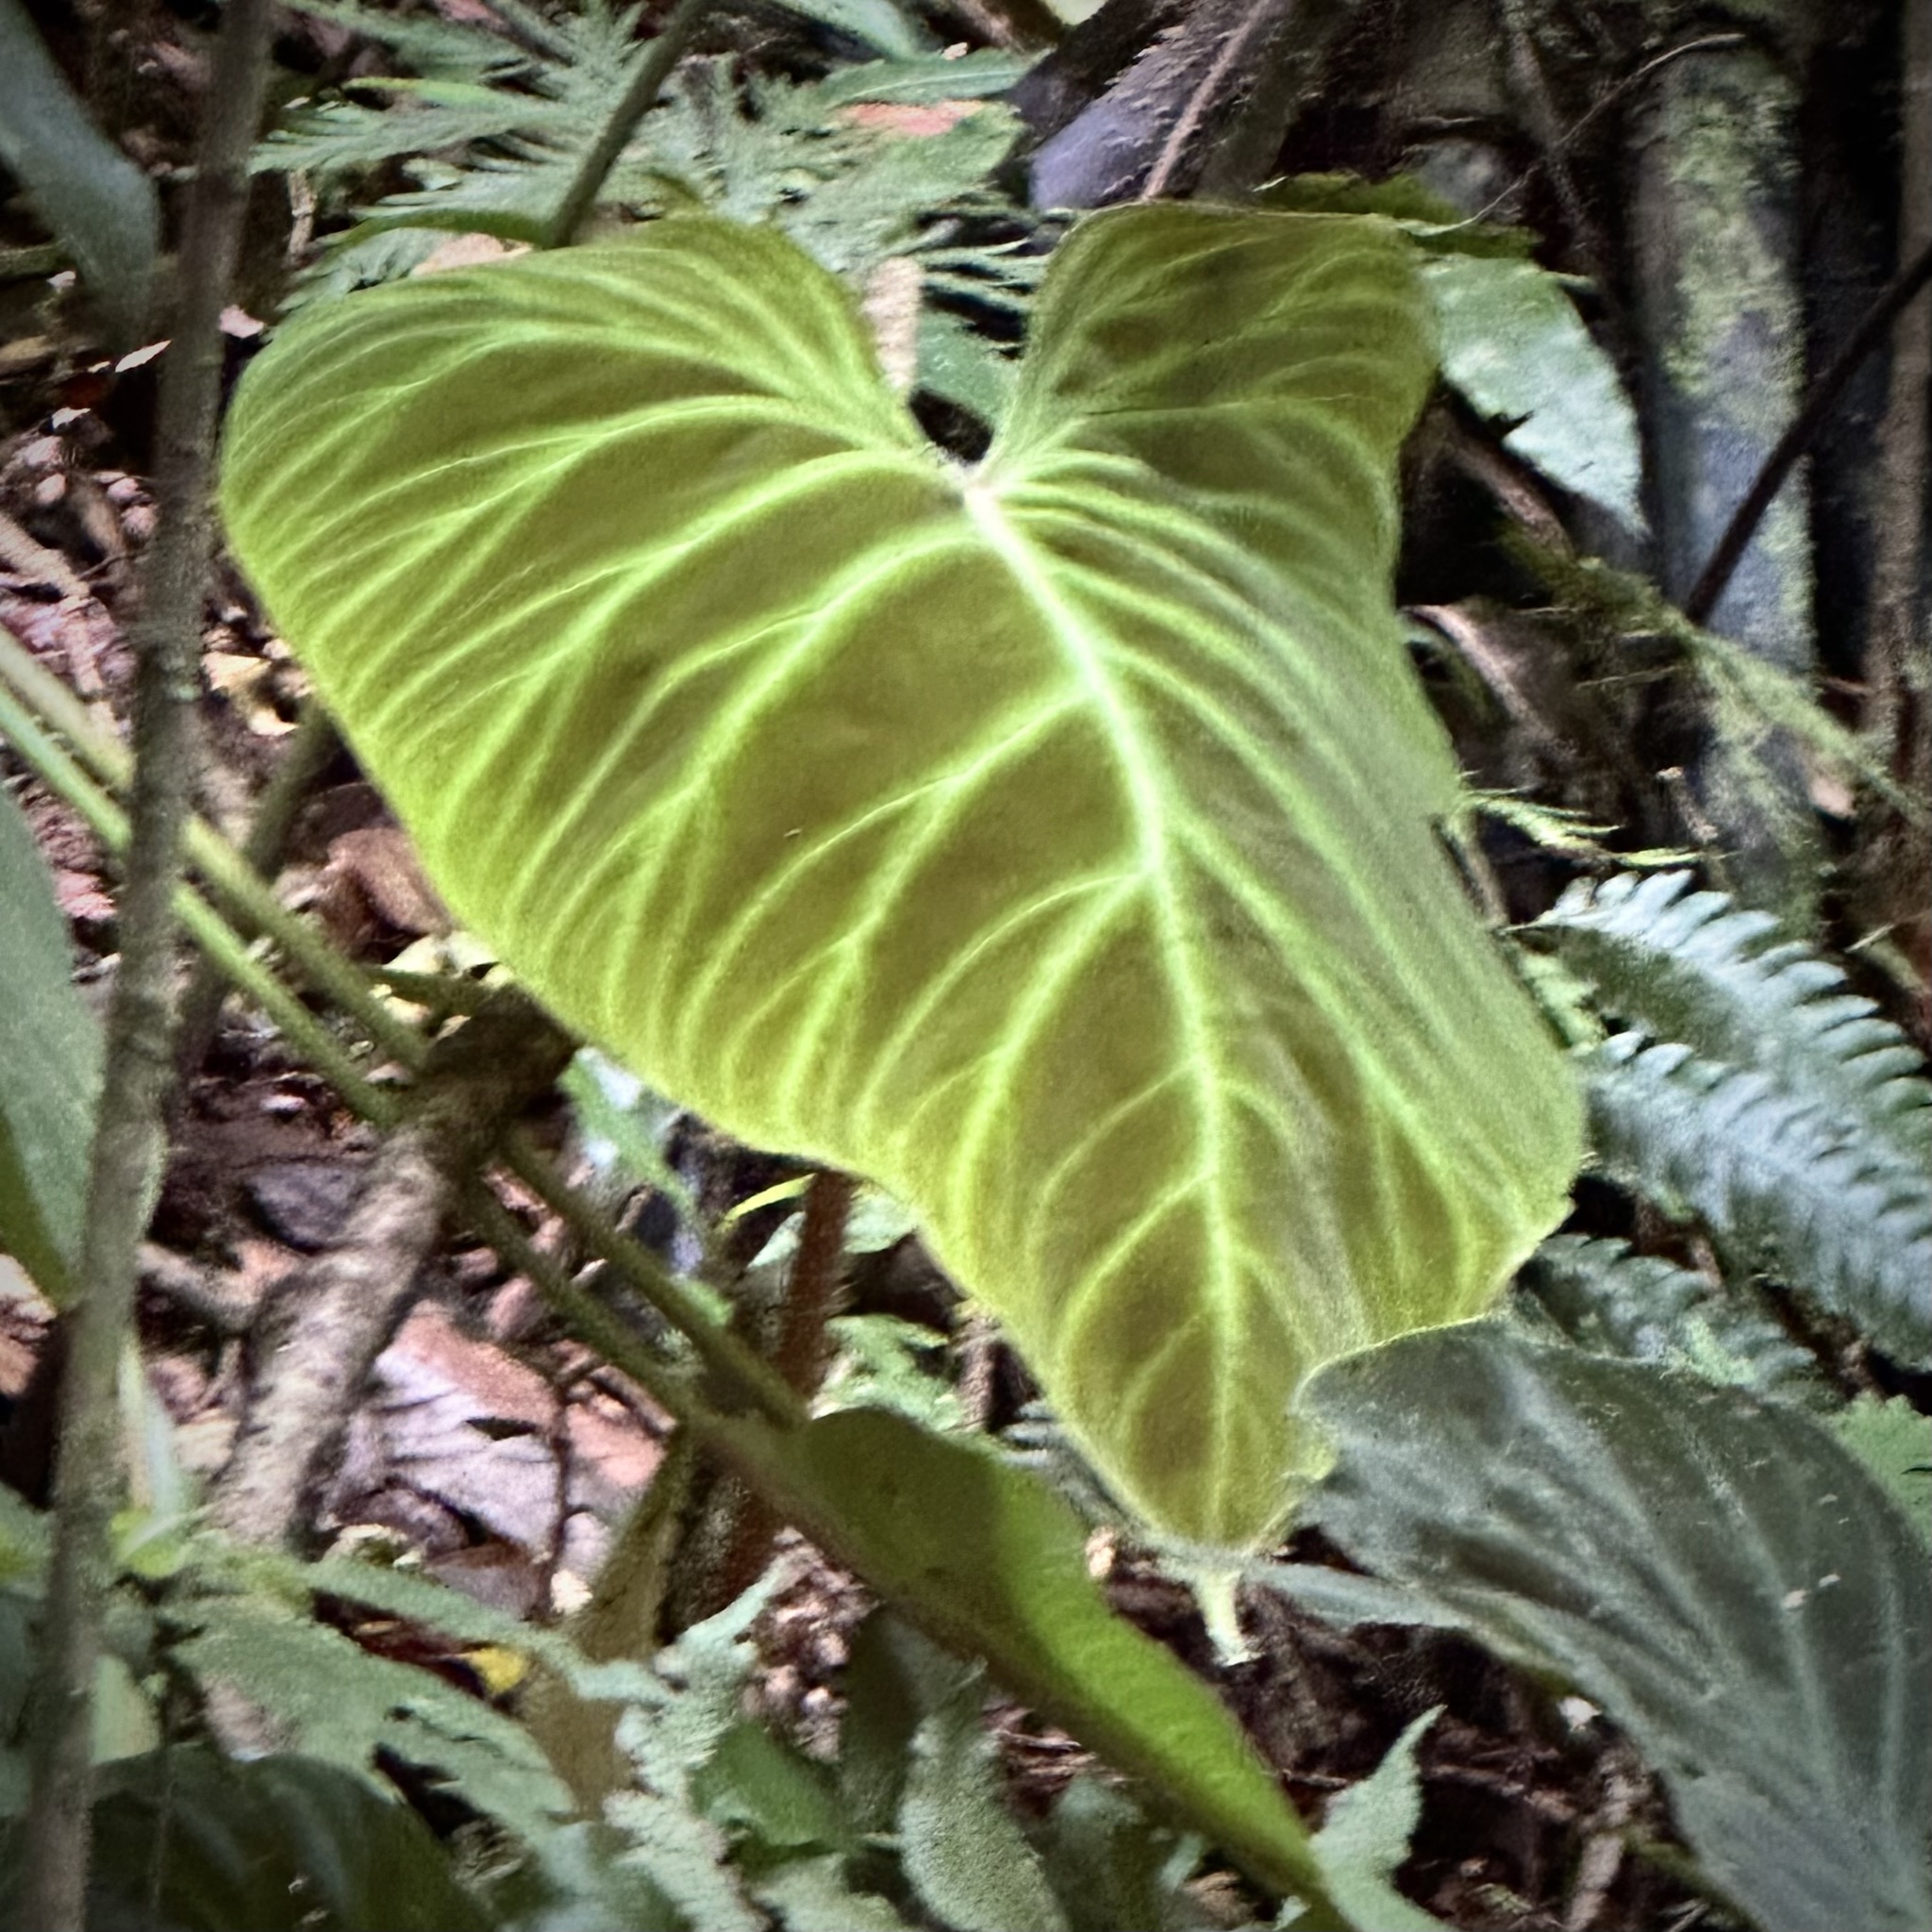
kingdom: Plantae
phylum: Tracheophyta
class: Liliopsida
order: Alismatales
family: Araceae
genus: Philodendron
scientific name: Philodendron verrucosum
